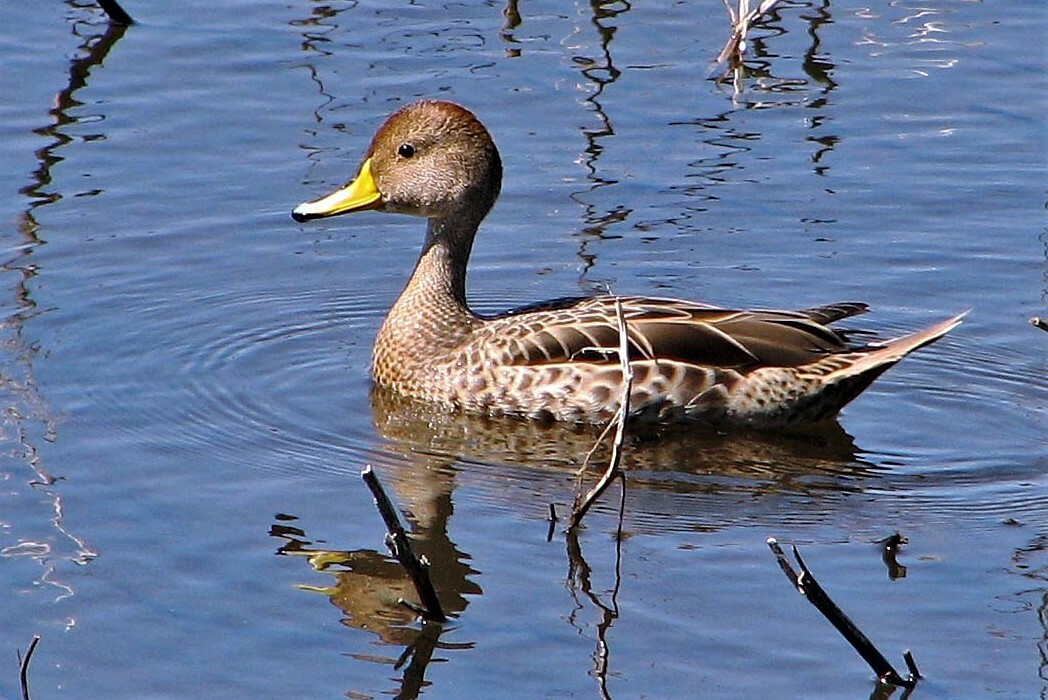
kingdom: Animalia
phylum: Chordata
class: Aves
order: Anseriformes
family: Anatidae
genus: Anas
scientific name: Anas georgica
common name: Yellow-billed pintail
